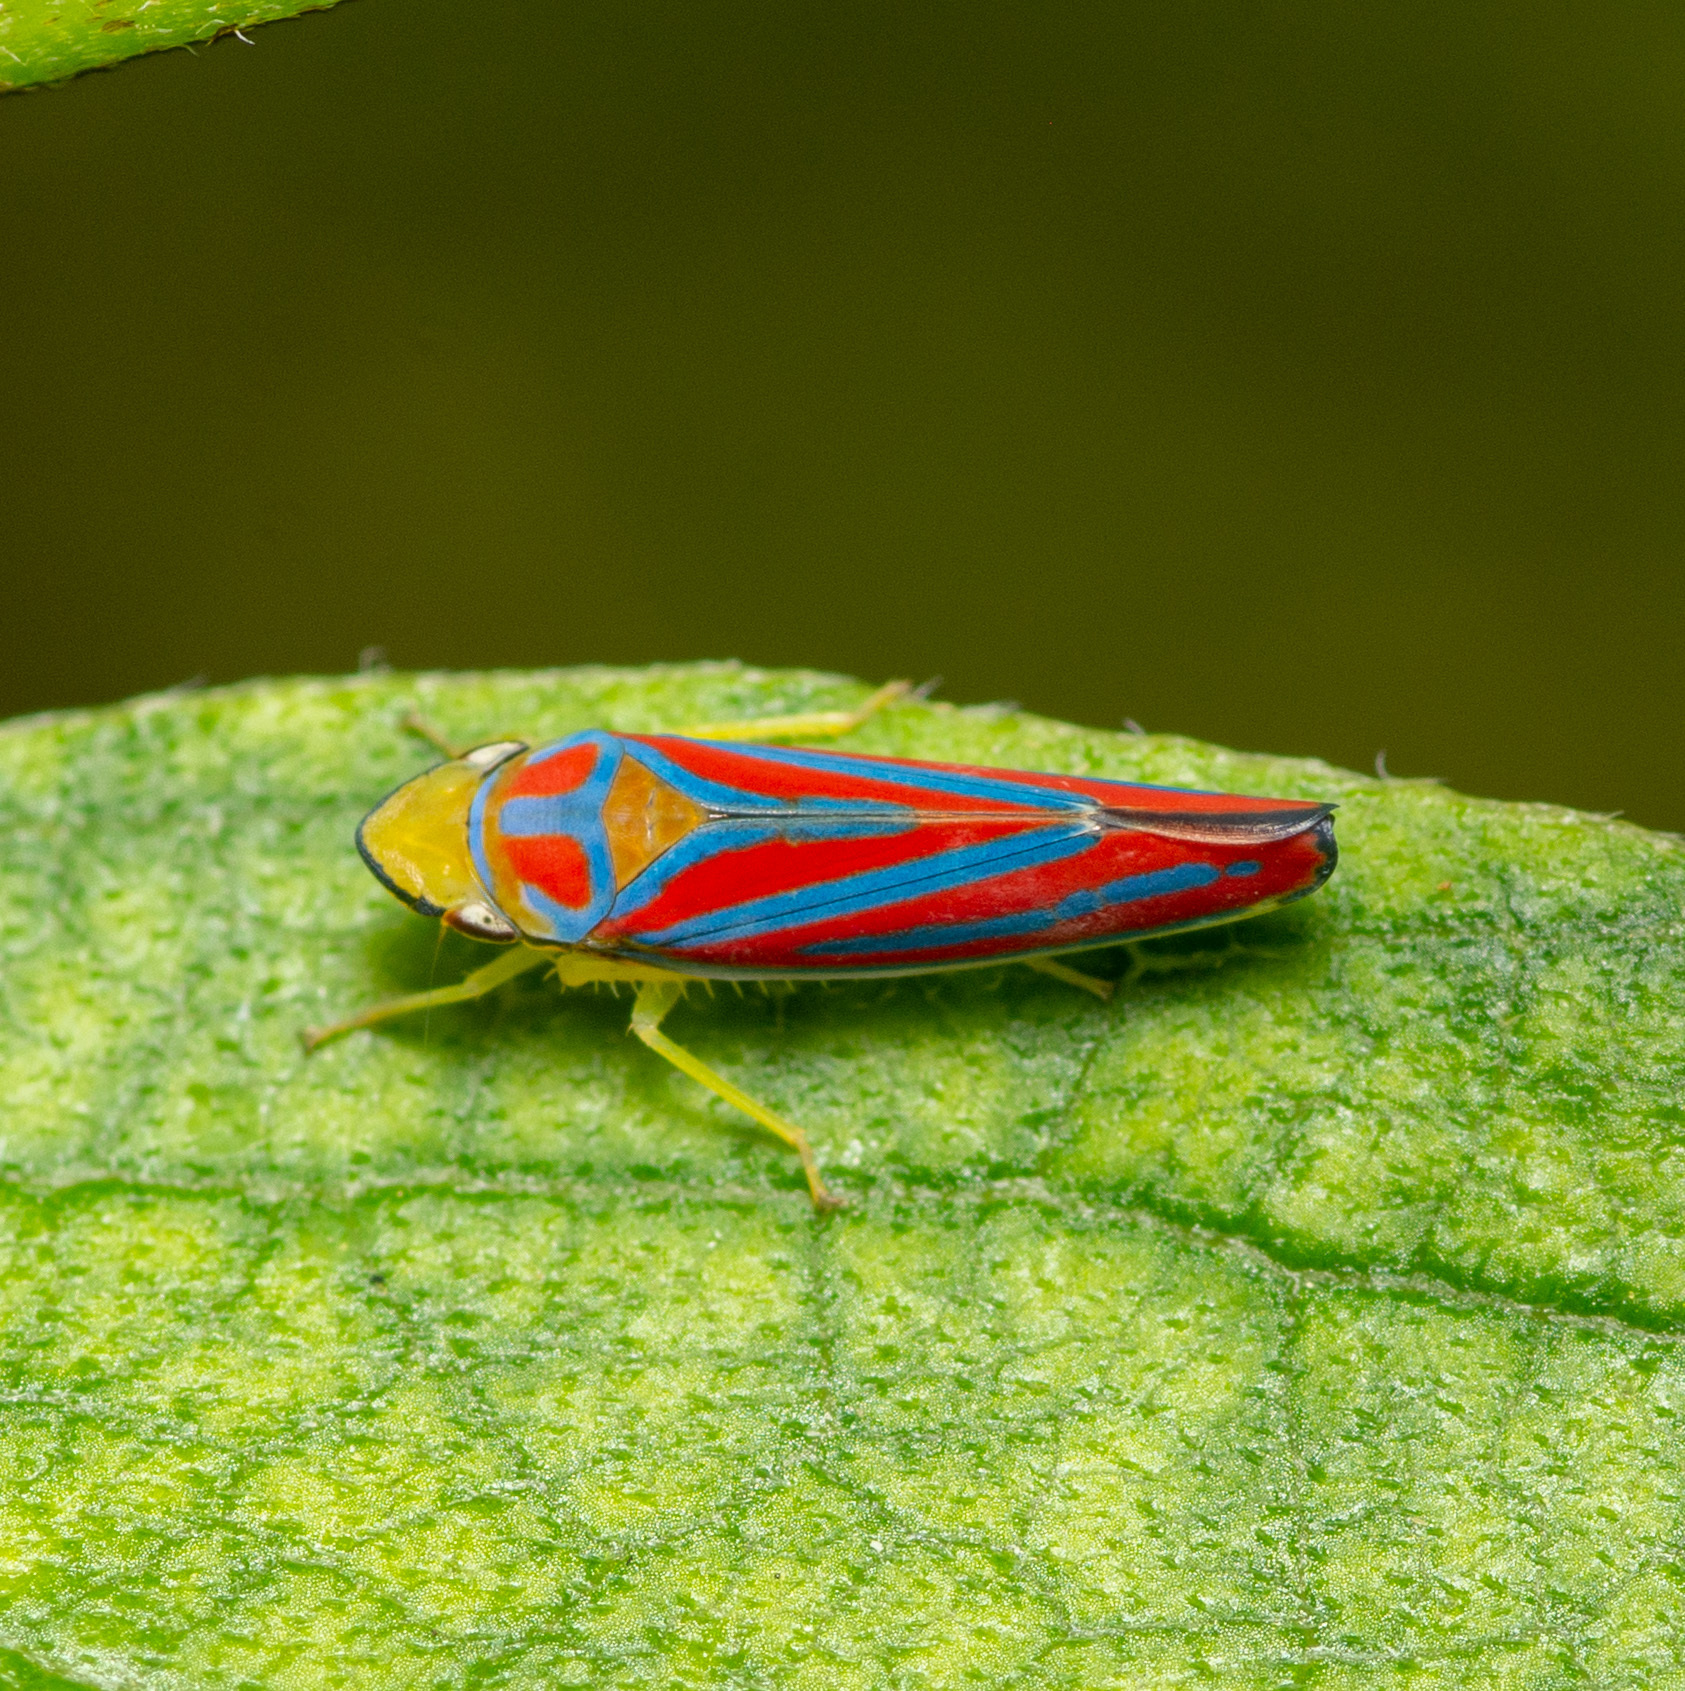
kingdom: Animalia
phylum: Arthropoda
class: Insecta
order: Hemiptera
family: Cicadellidae
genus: Graphocephala
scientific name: Graphocephala coccinea
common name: Candy-striped leafhopper
